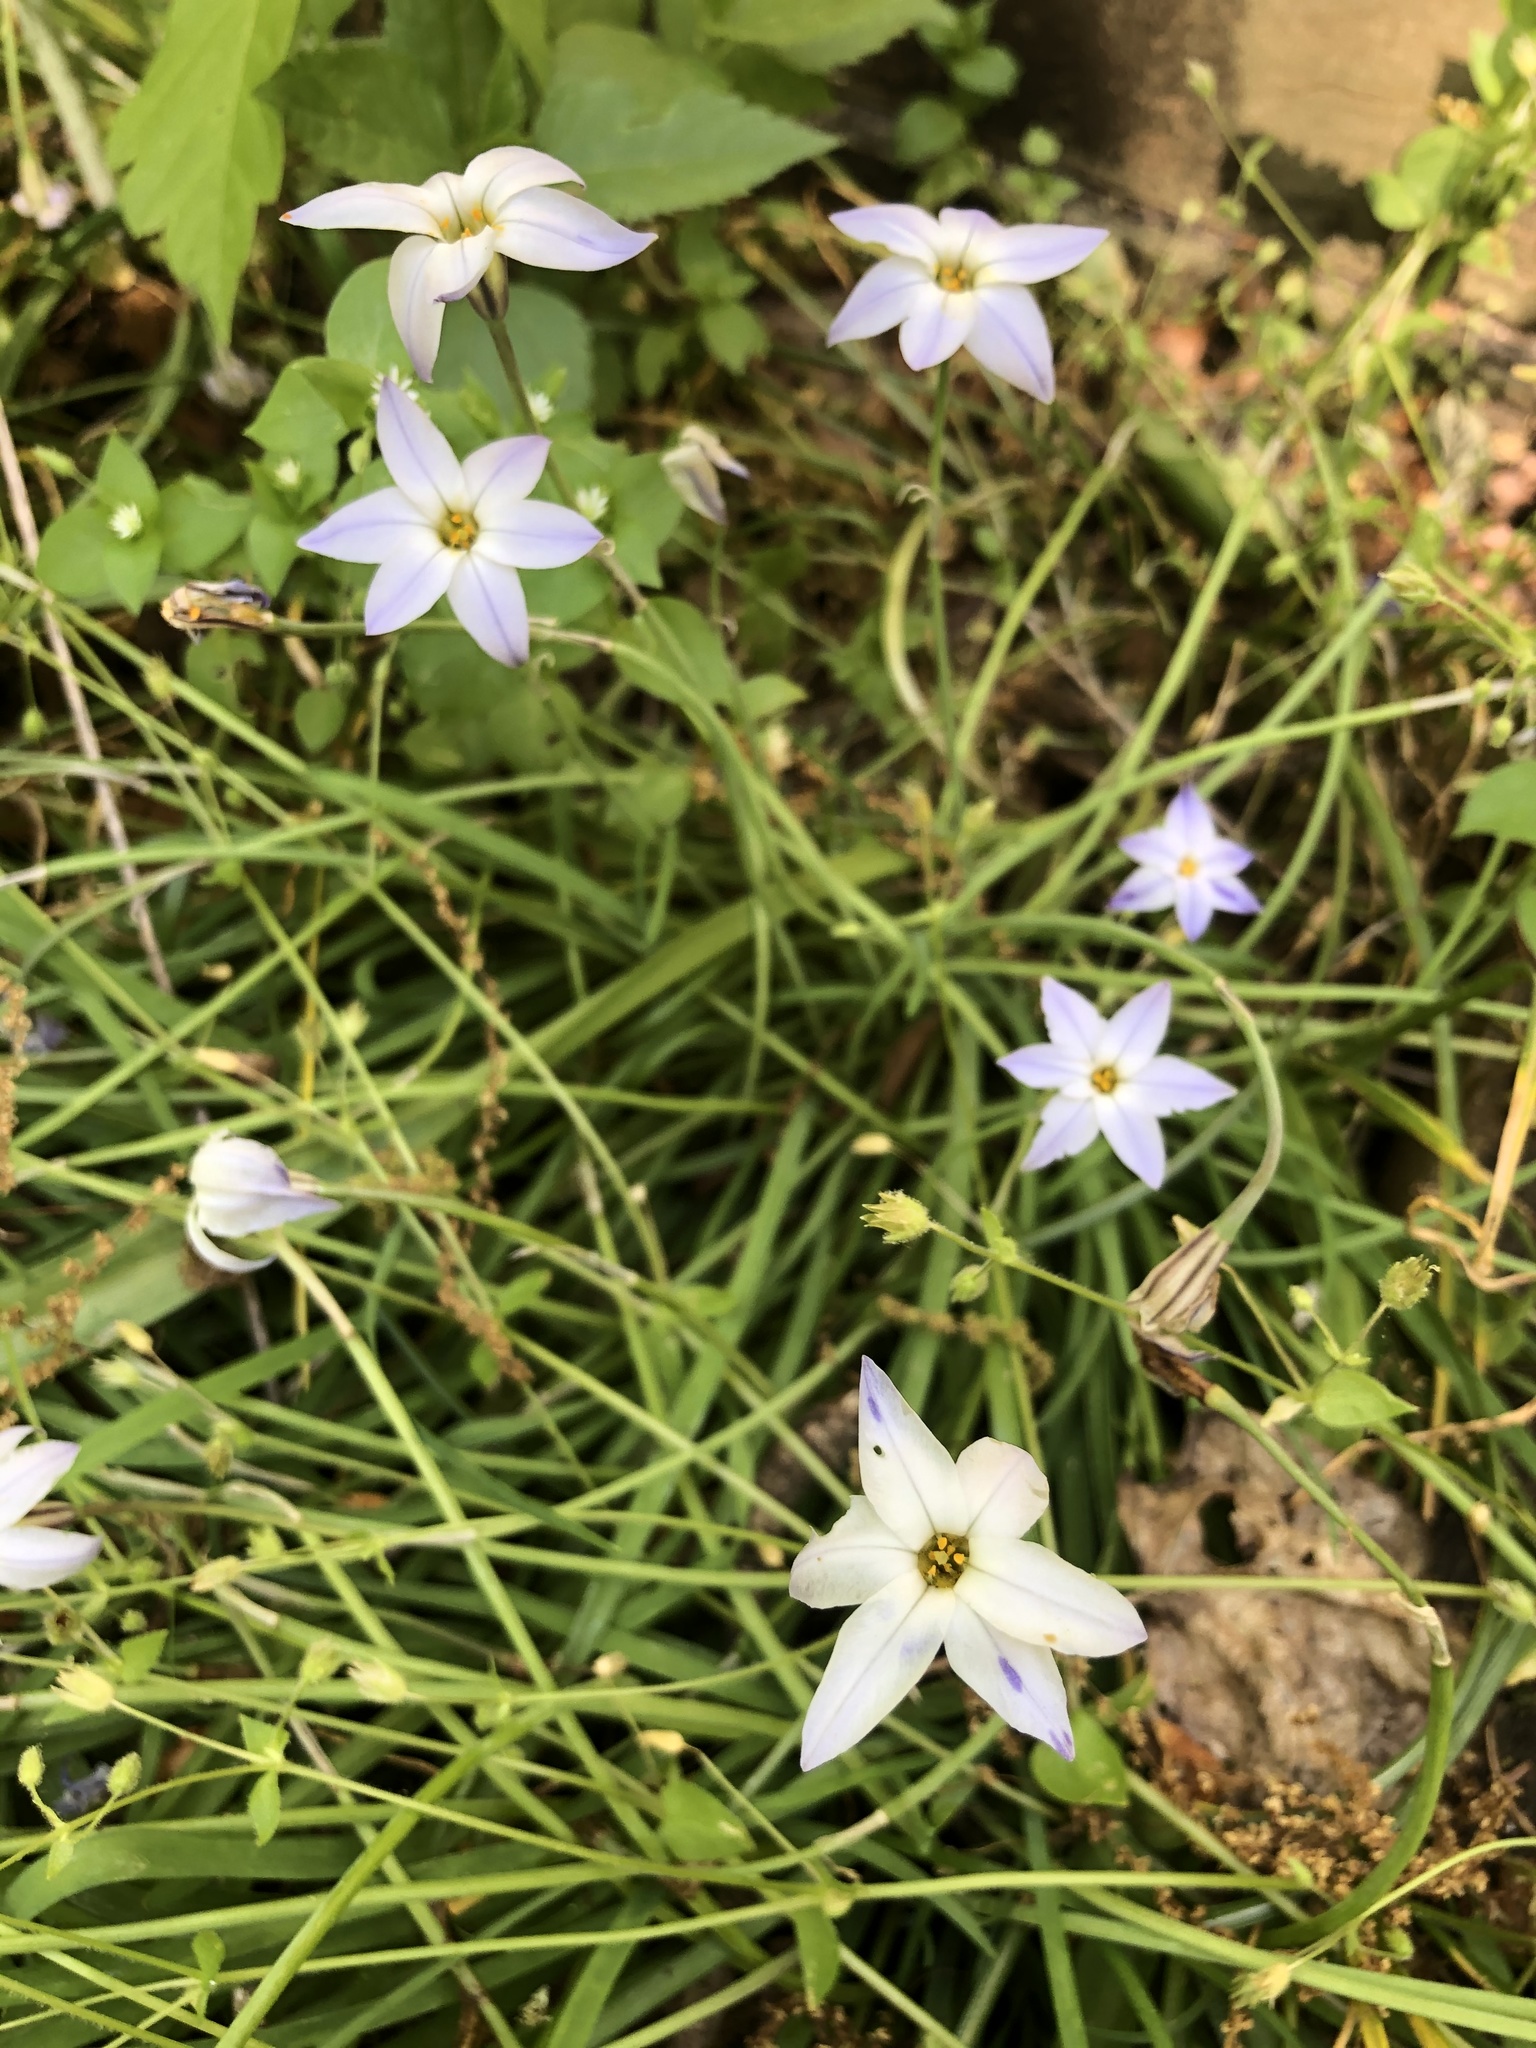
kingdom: Plantae
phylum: Tracheophyta
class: Liliopsida
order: Asparagales
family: Amaryllidaceae
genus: Ipheion
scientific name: Ipheion uniflorum
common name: Spring starflower
